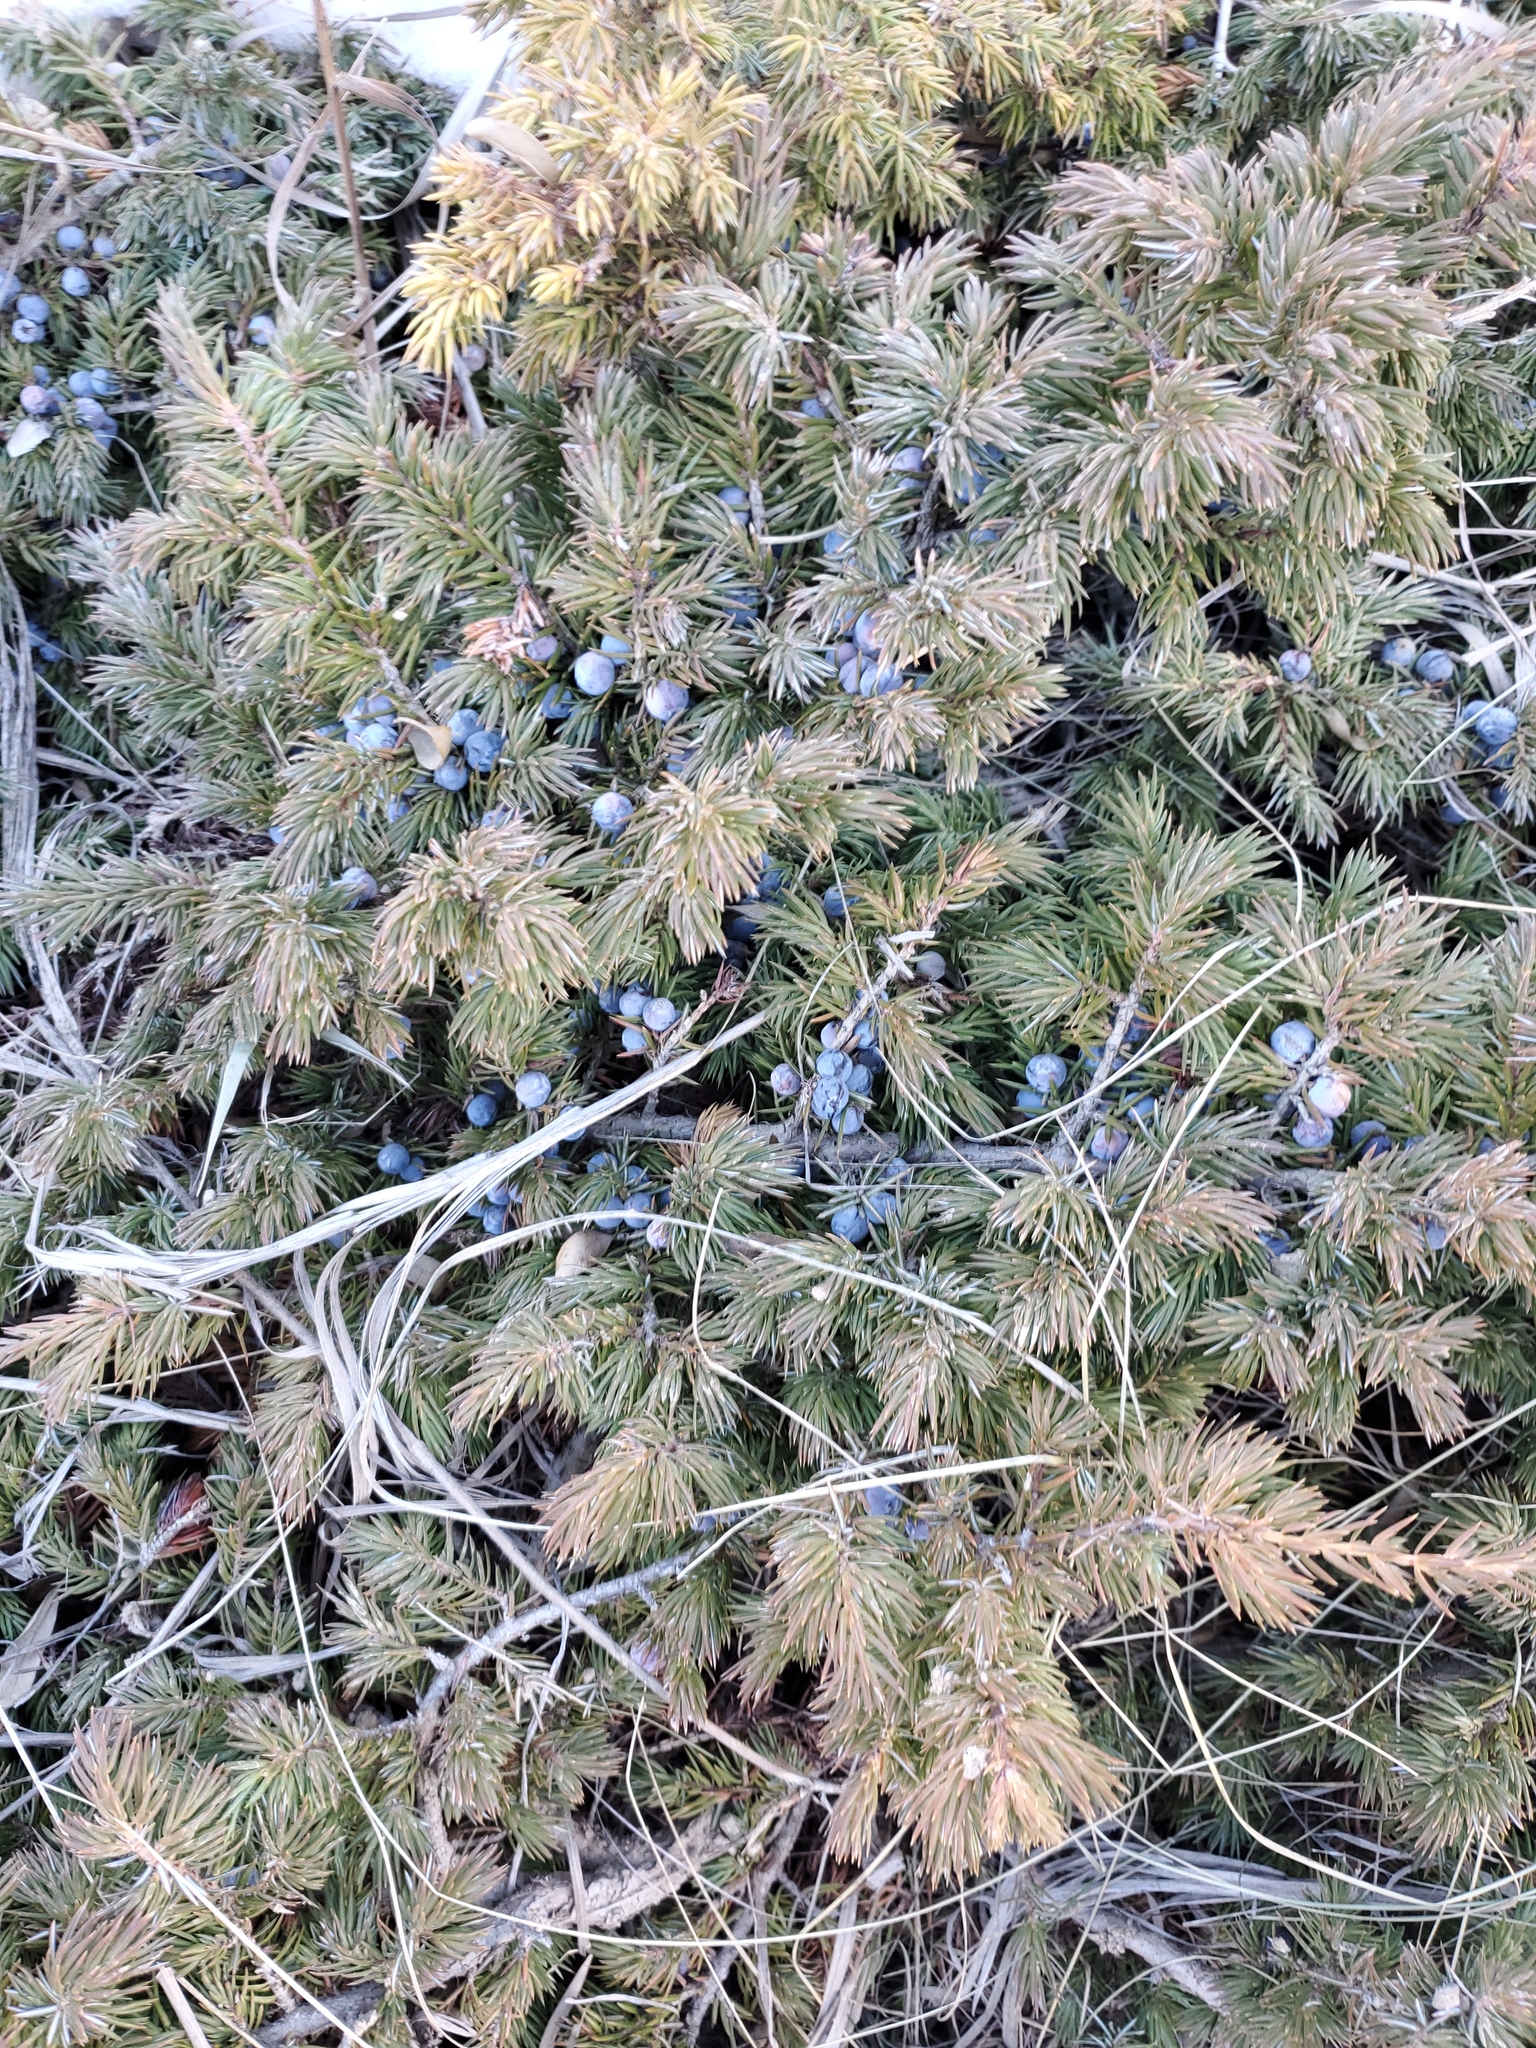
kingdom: Plantae
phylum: Tracheophyta
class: Pinopsida
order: Pinales
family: Cupressaceae
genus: Juniperus
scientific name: Juniperus communis
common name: Common juniper
